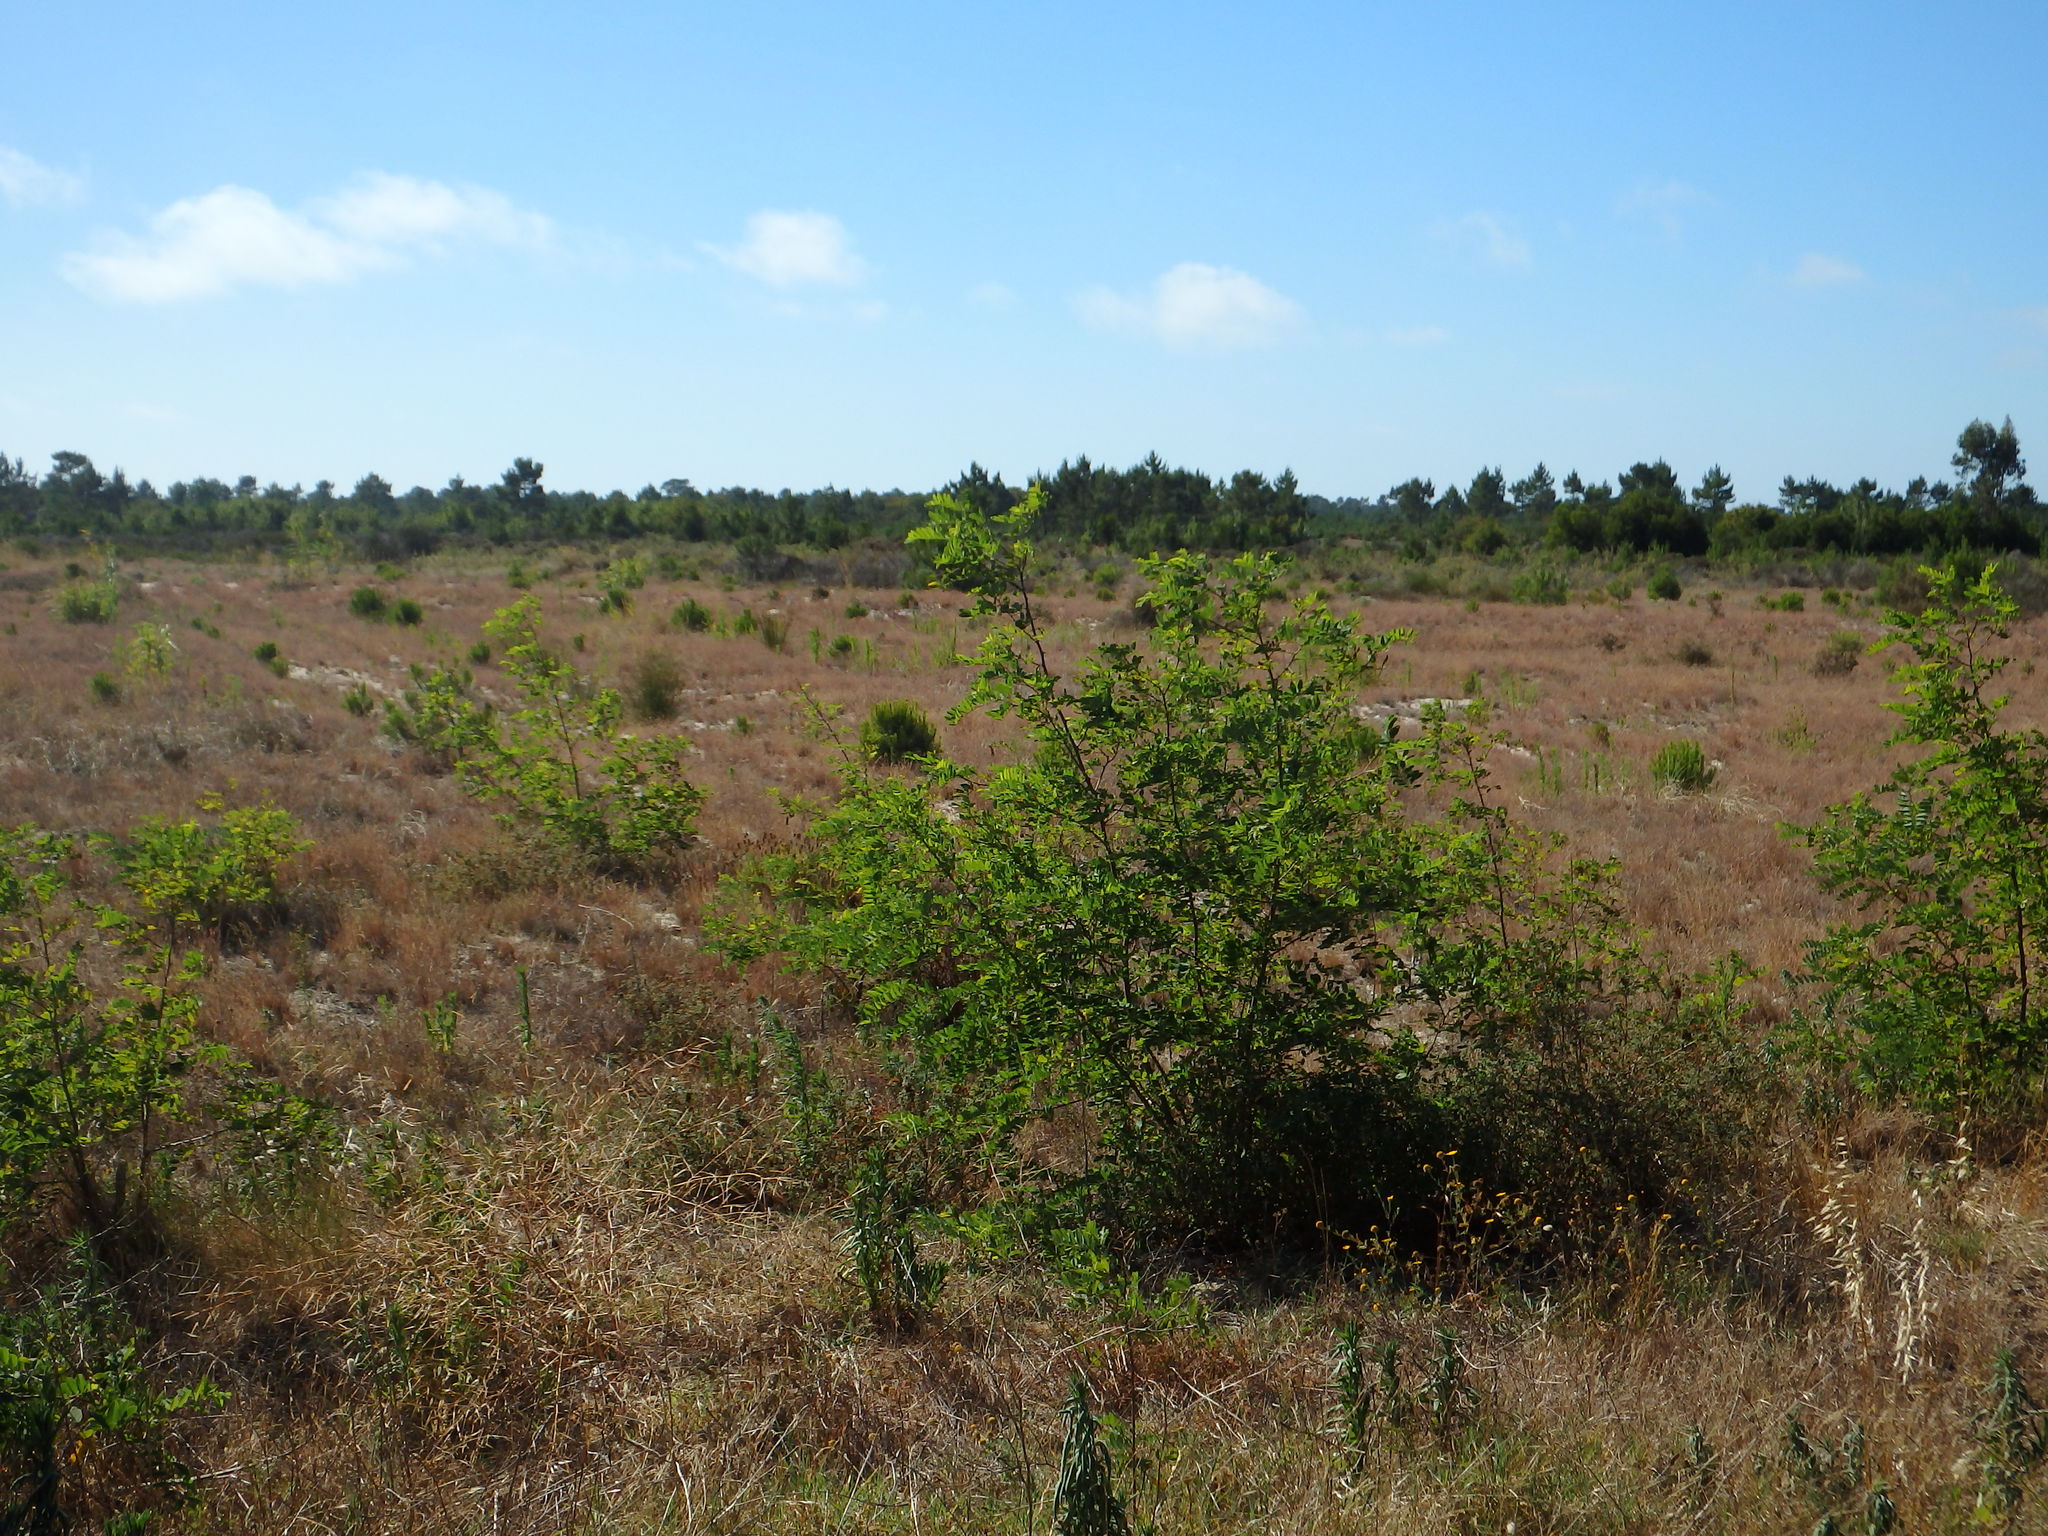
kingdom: Plantae
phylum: Tracheophyta
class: Magnoliopsida
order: Fabales
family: Fabaceae
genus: Robinia
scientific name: Robinia pseudoacacia
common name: Black locust
